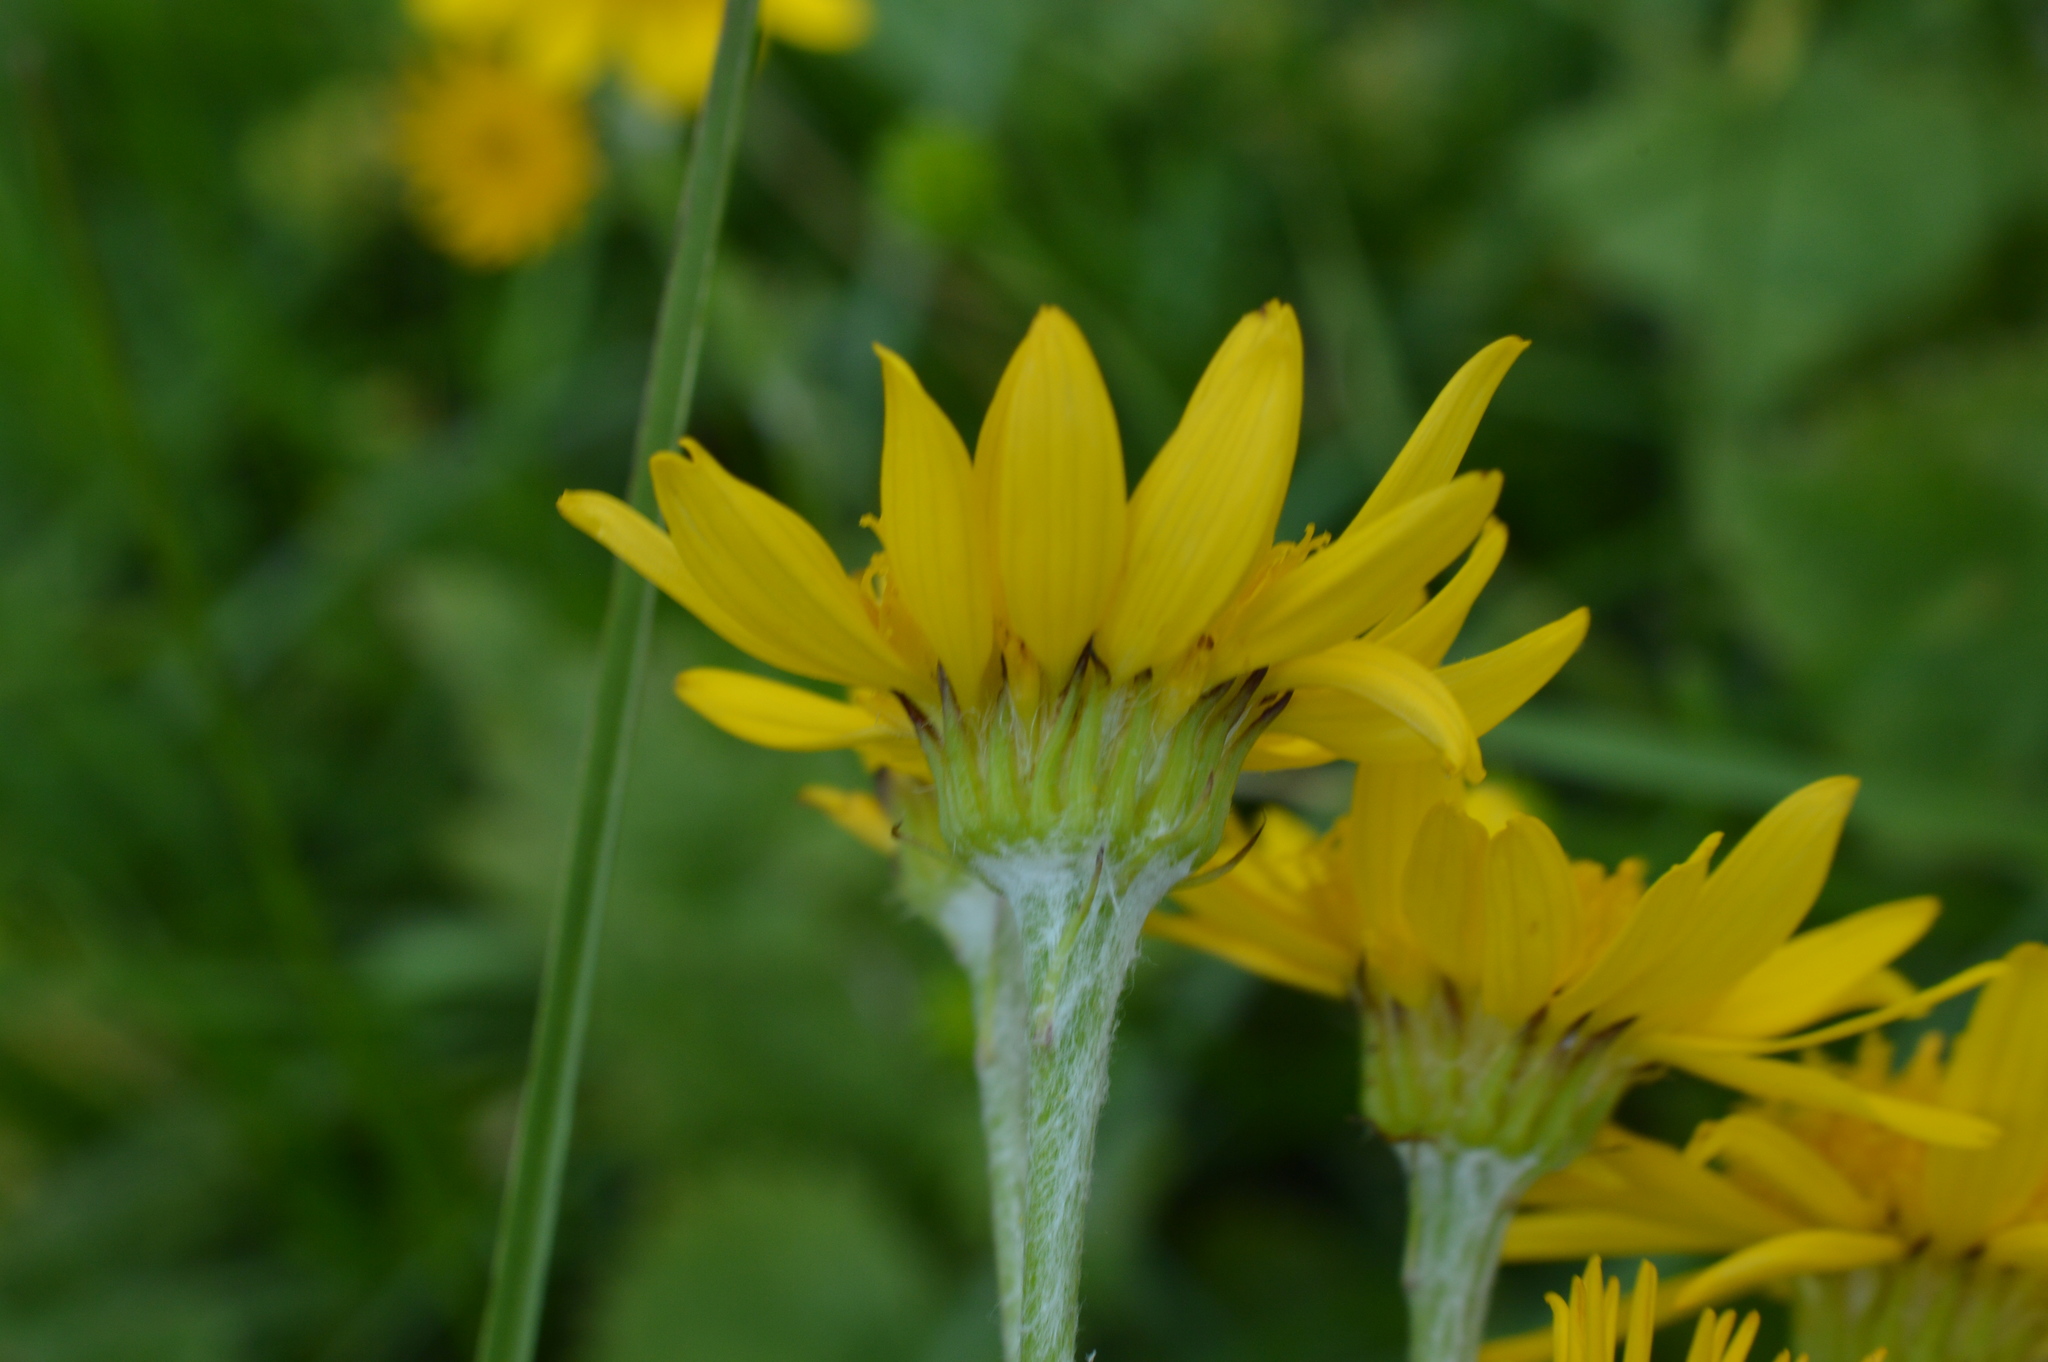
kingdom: Plantae
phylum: Tracheophyta
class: Magnoliopsida
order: Asterales
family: Asteraceae
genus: Jacobaea
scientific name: Jacobaea alpina
